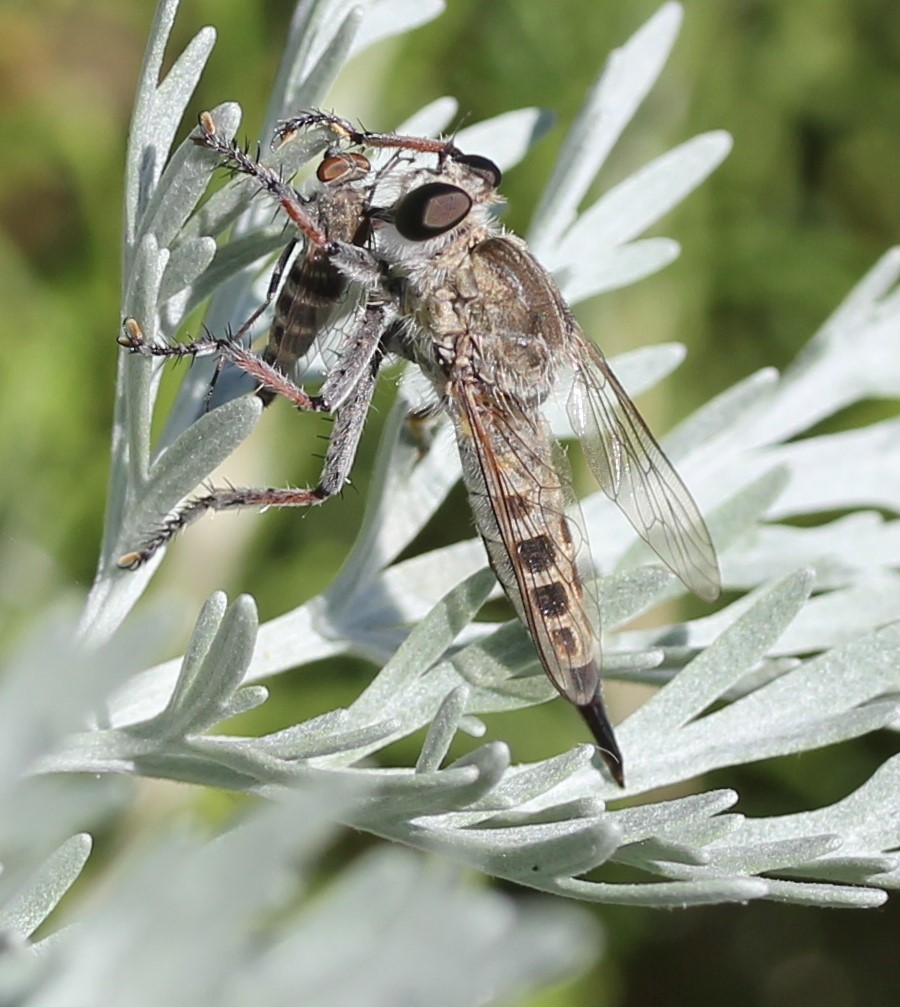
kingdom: Animalia
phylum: Arthropoda
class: Insecta
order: Diptera
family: Asilidae
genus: Efferia
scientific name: Efferia albibarbis
